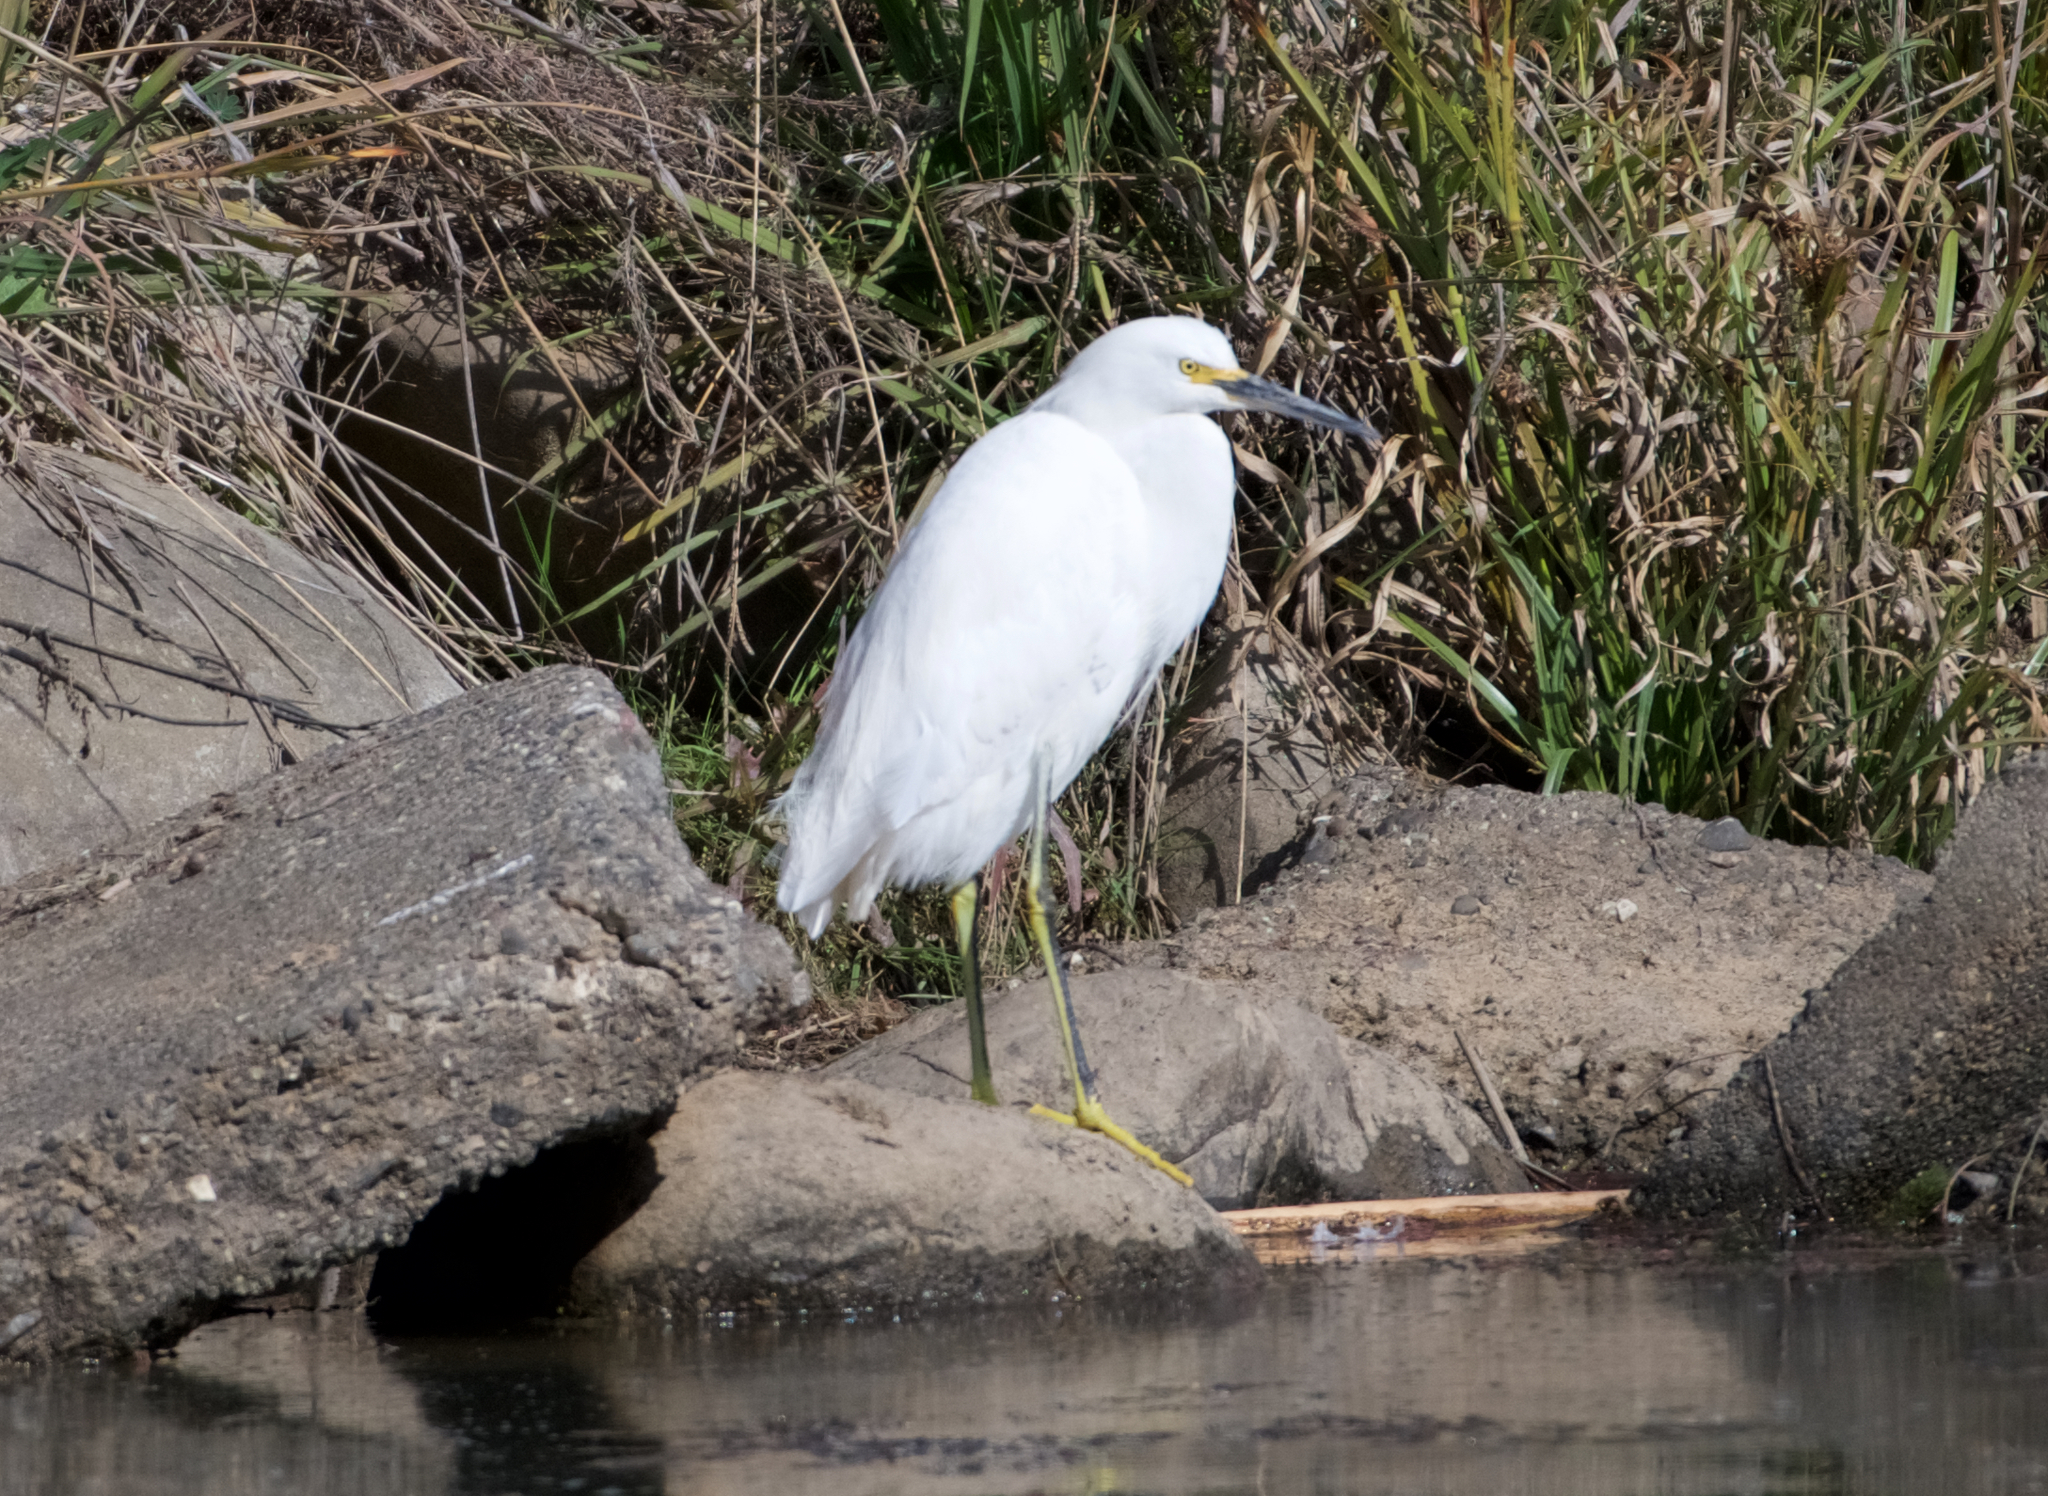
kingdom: Animalia
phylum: Chordata
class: Aves
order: Pelecaniformes
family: Ardeidae
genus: Egretta
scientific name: Egretta thula
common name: Snowy egret
